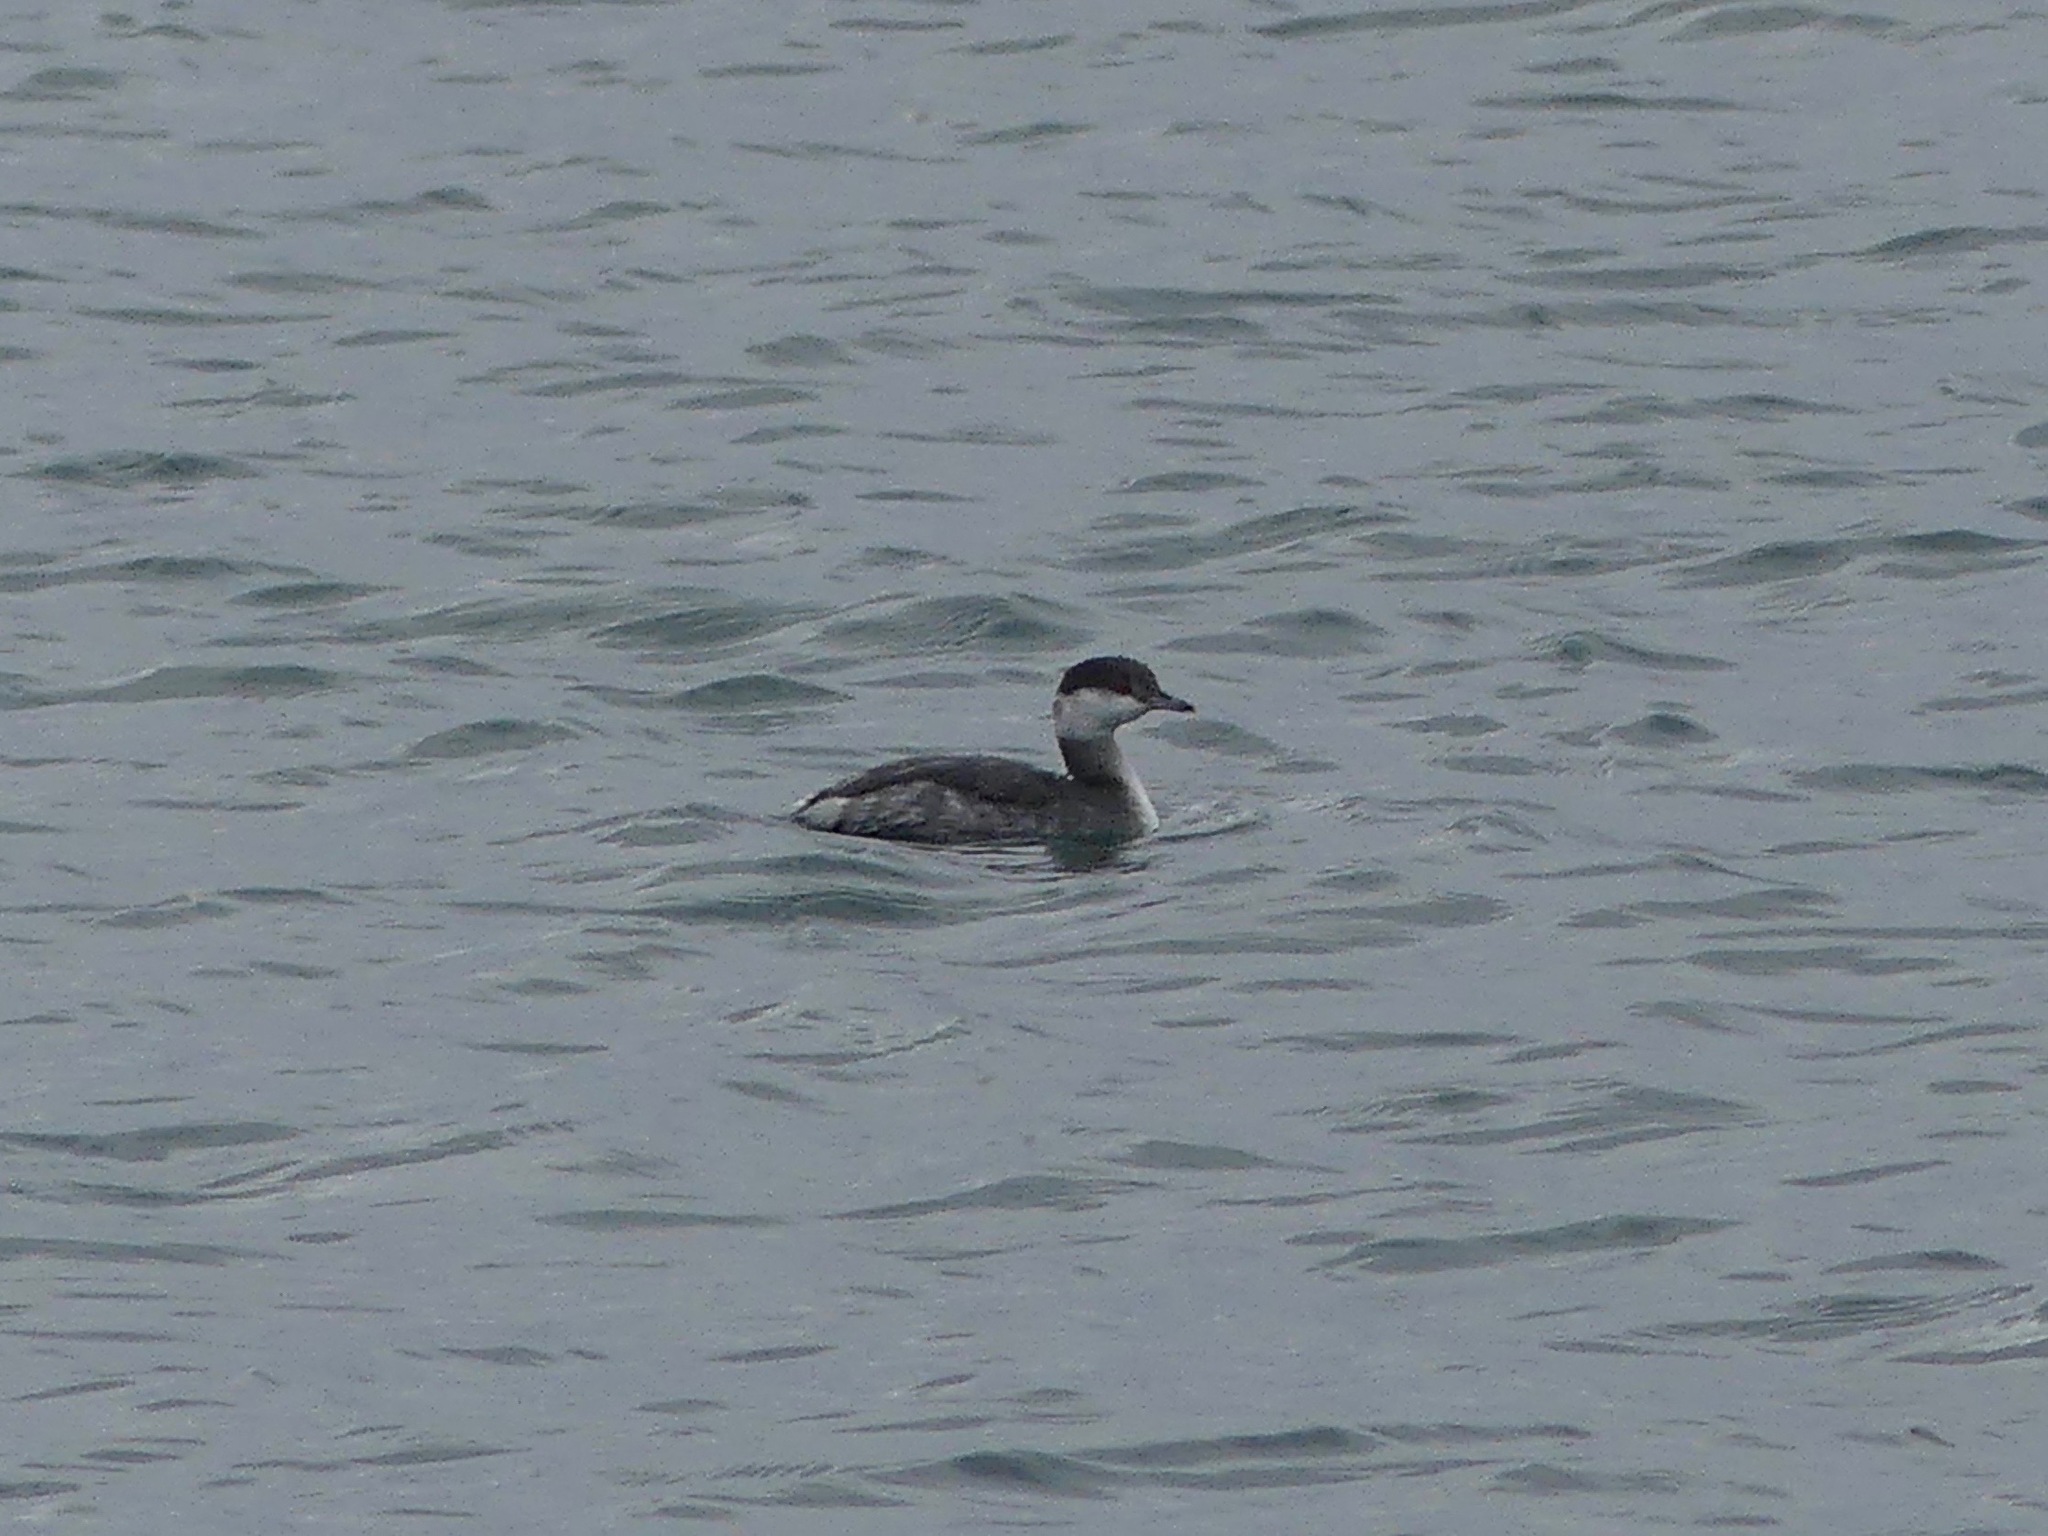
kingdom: Animalia
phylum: Chordata
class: Aves
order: Podicipediformes
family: Podicipedidae
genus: Podiceps
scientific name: Podiceps auritus
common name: Horned grebe
